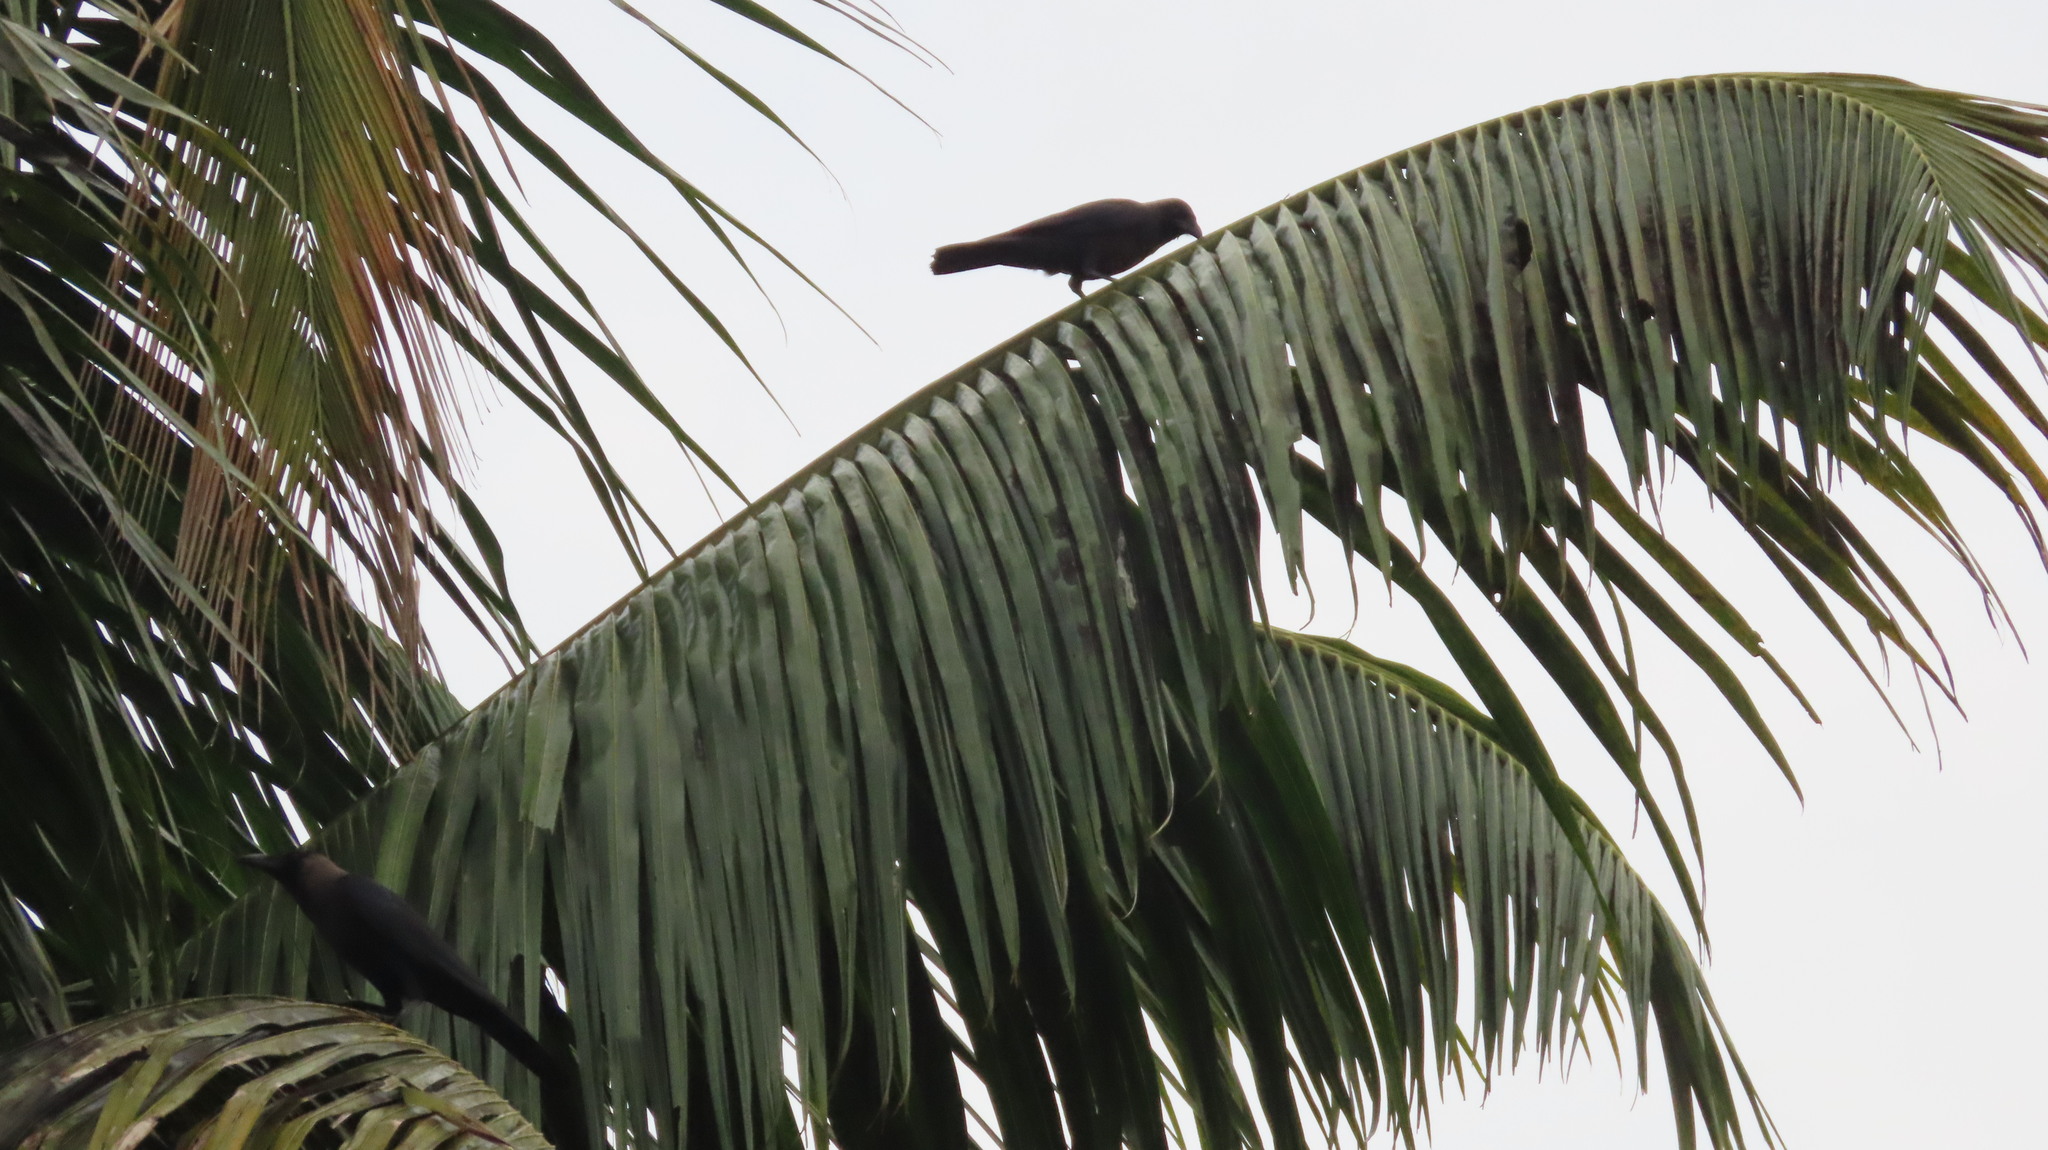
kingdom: Animalia
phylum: Chordata
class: Aves
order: Passeriformes
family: Corvidae
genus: Corvus
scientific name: Corvus splendens
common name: House crow
